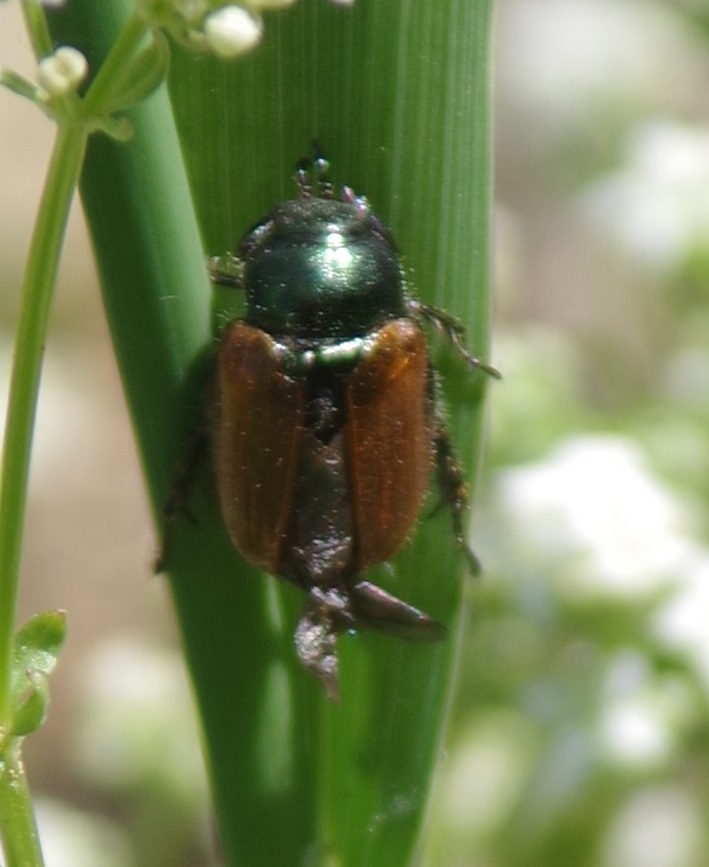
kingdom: Animalia
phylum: Arthropoda
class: Insecta
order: Coleoptera
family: Scarabaeidae
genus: Phyllopertha
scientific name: Phyllopertha horticola
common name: Garden chafer
